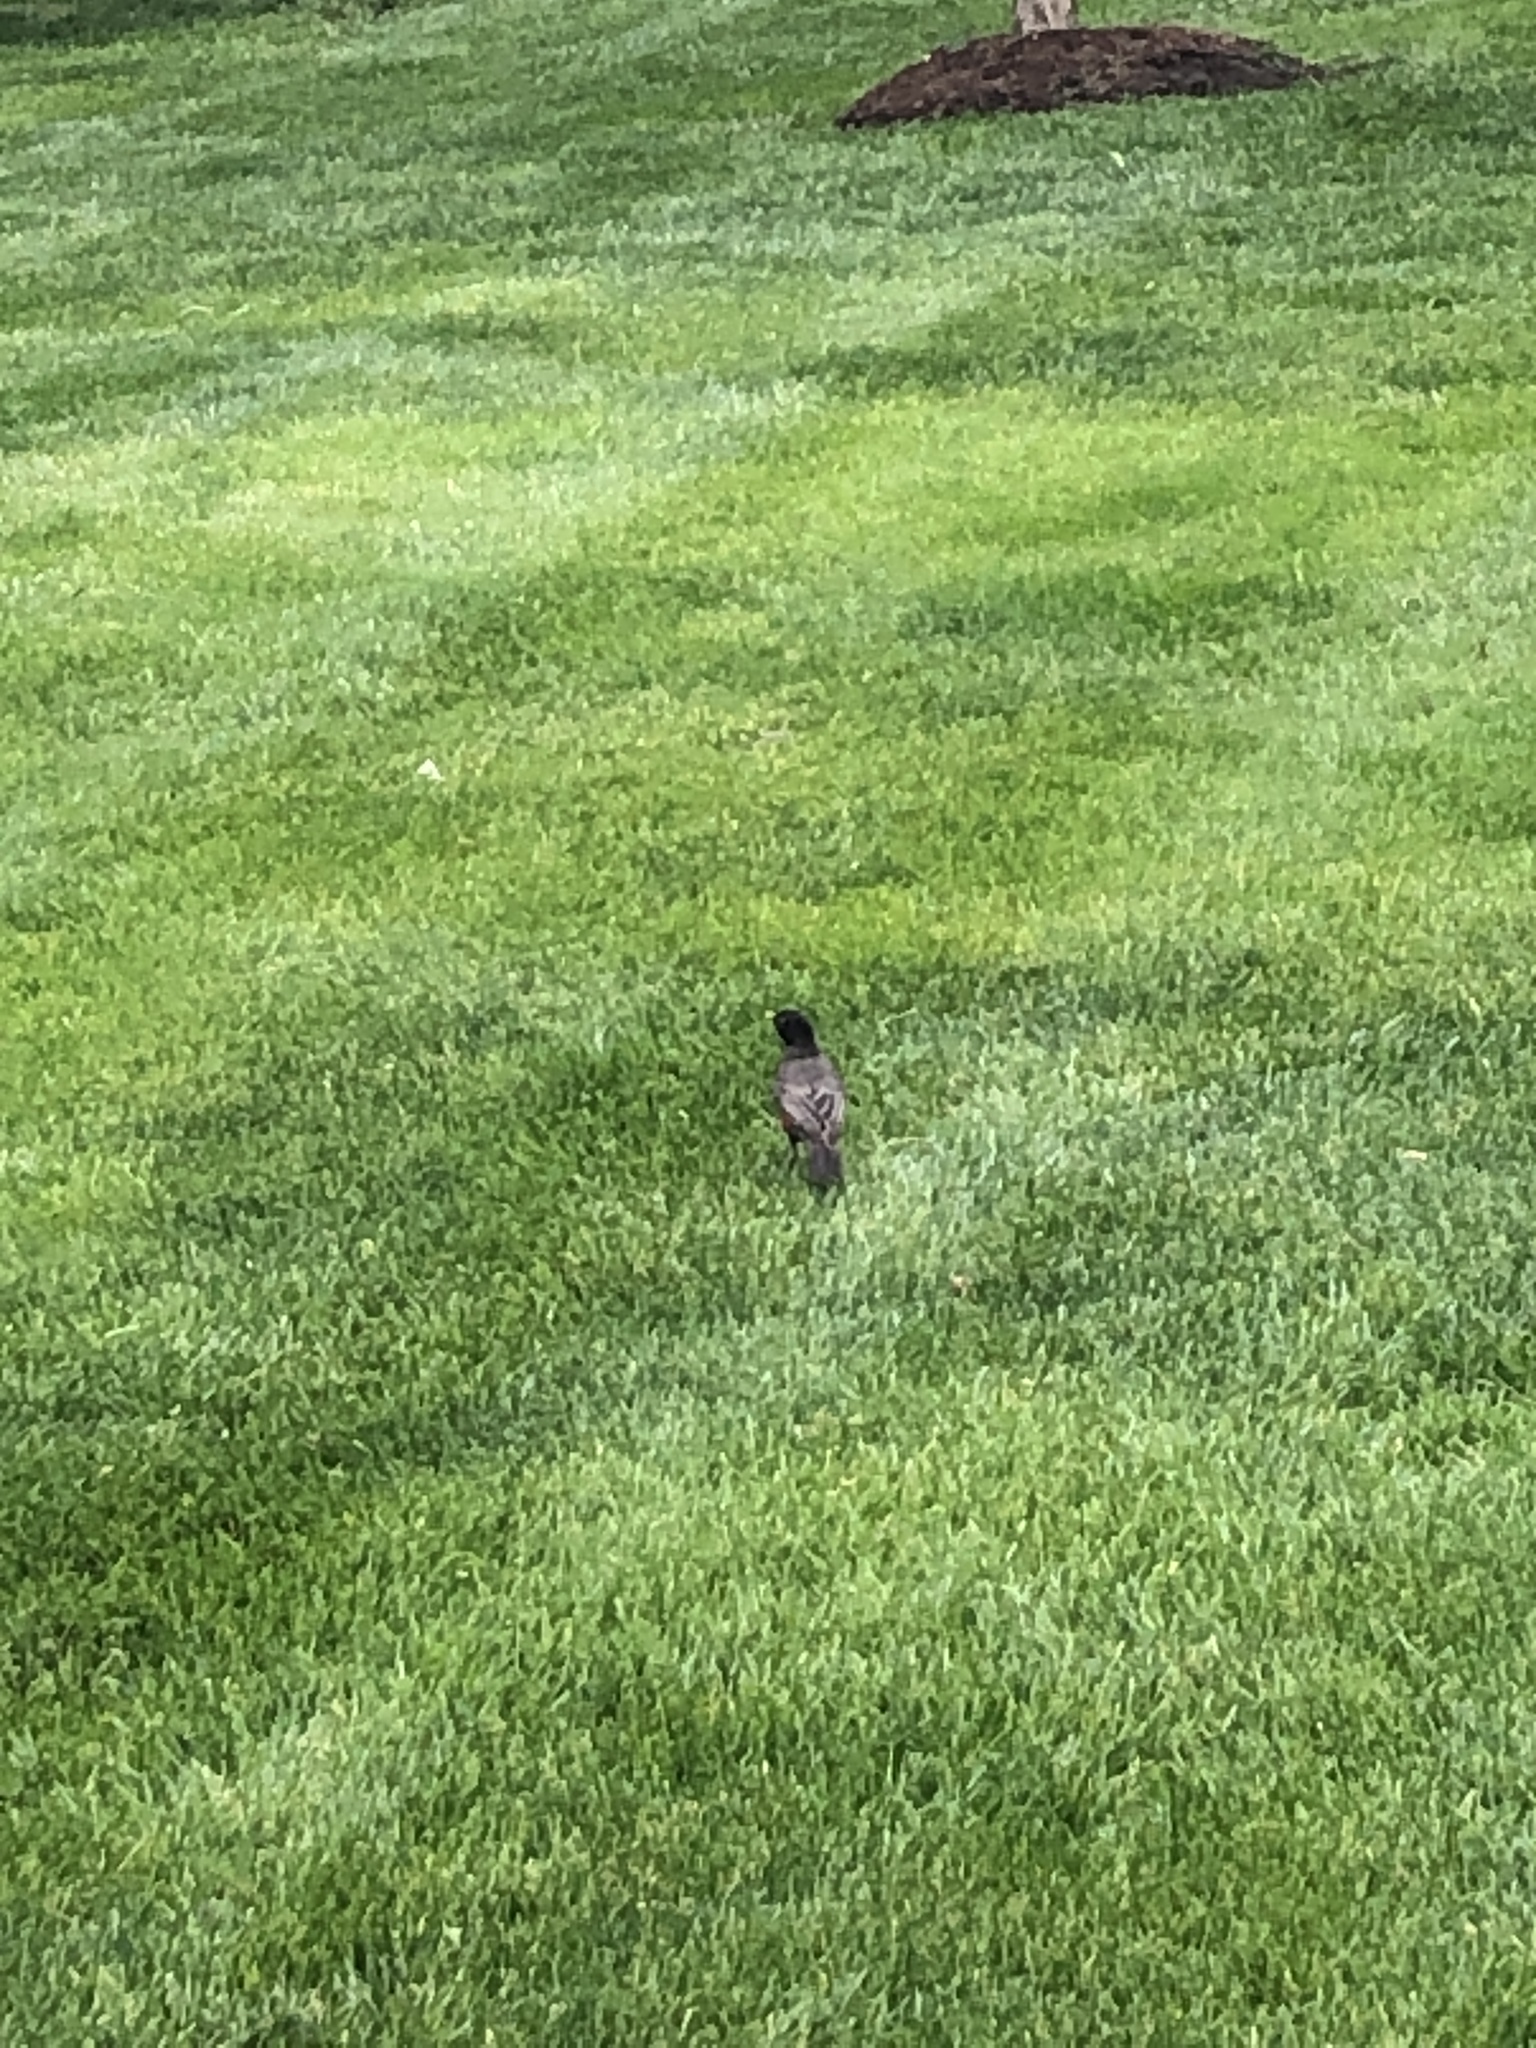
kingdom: Animalia
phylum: Chordata
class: Aves
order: Passeriformes
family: Turdidae
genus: Turdus
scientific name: Turdus migratorius
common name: American robin
